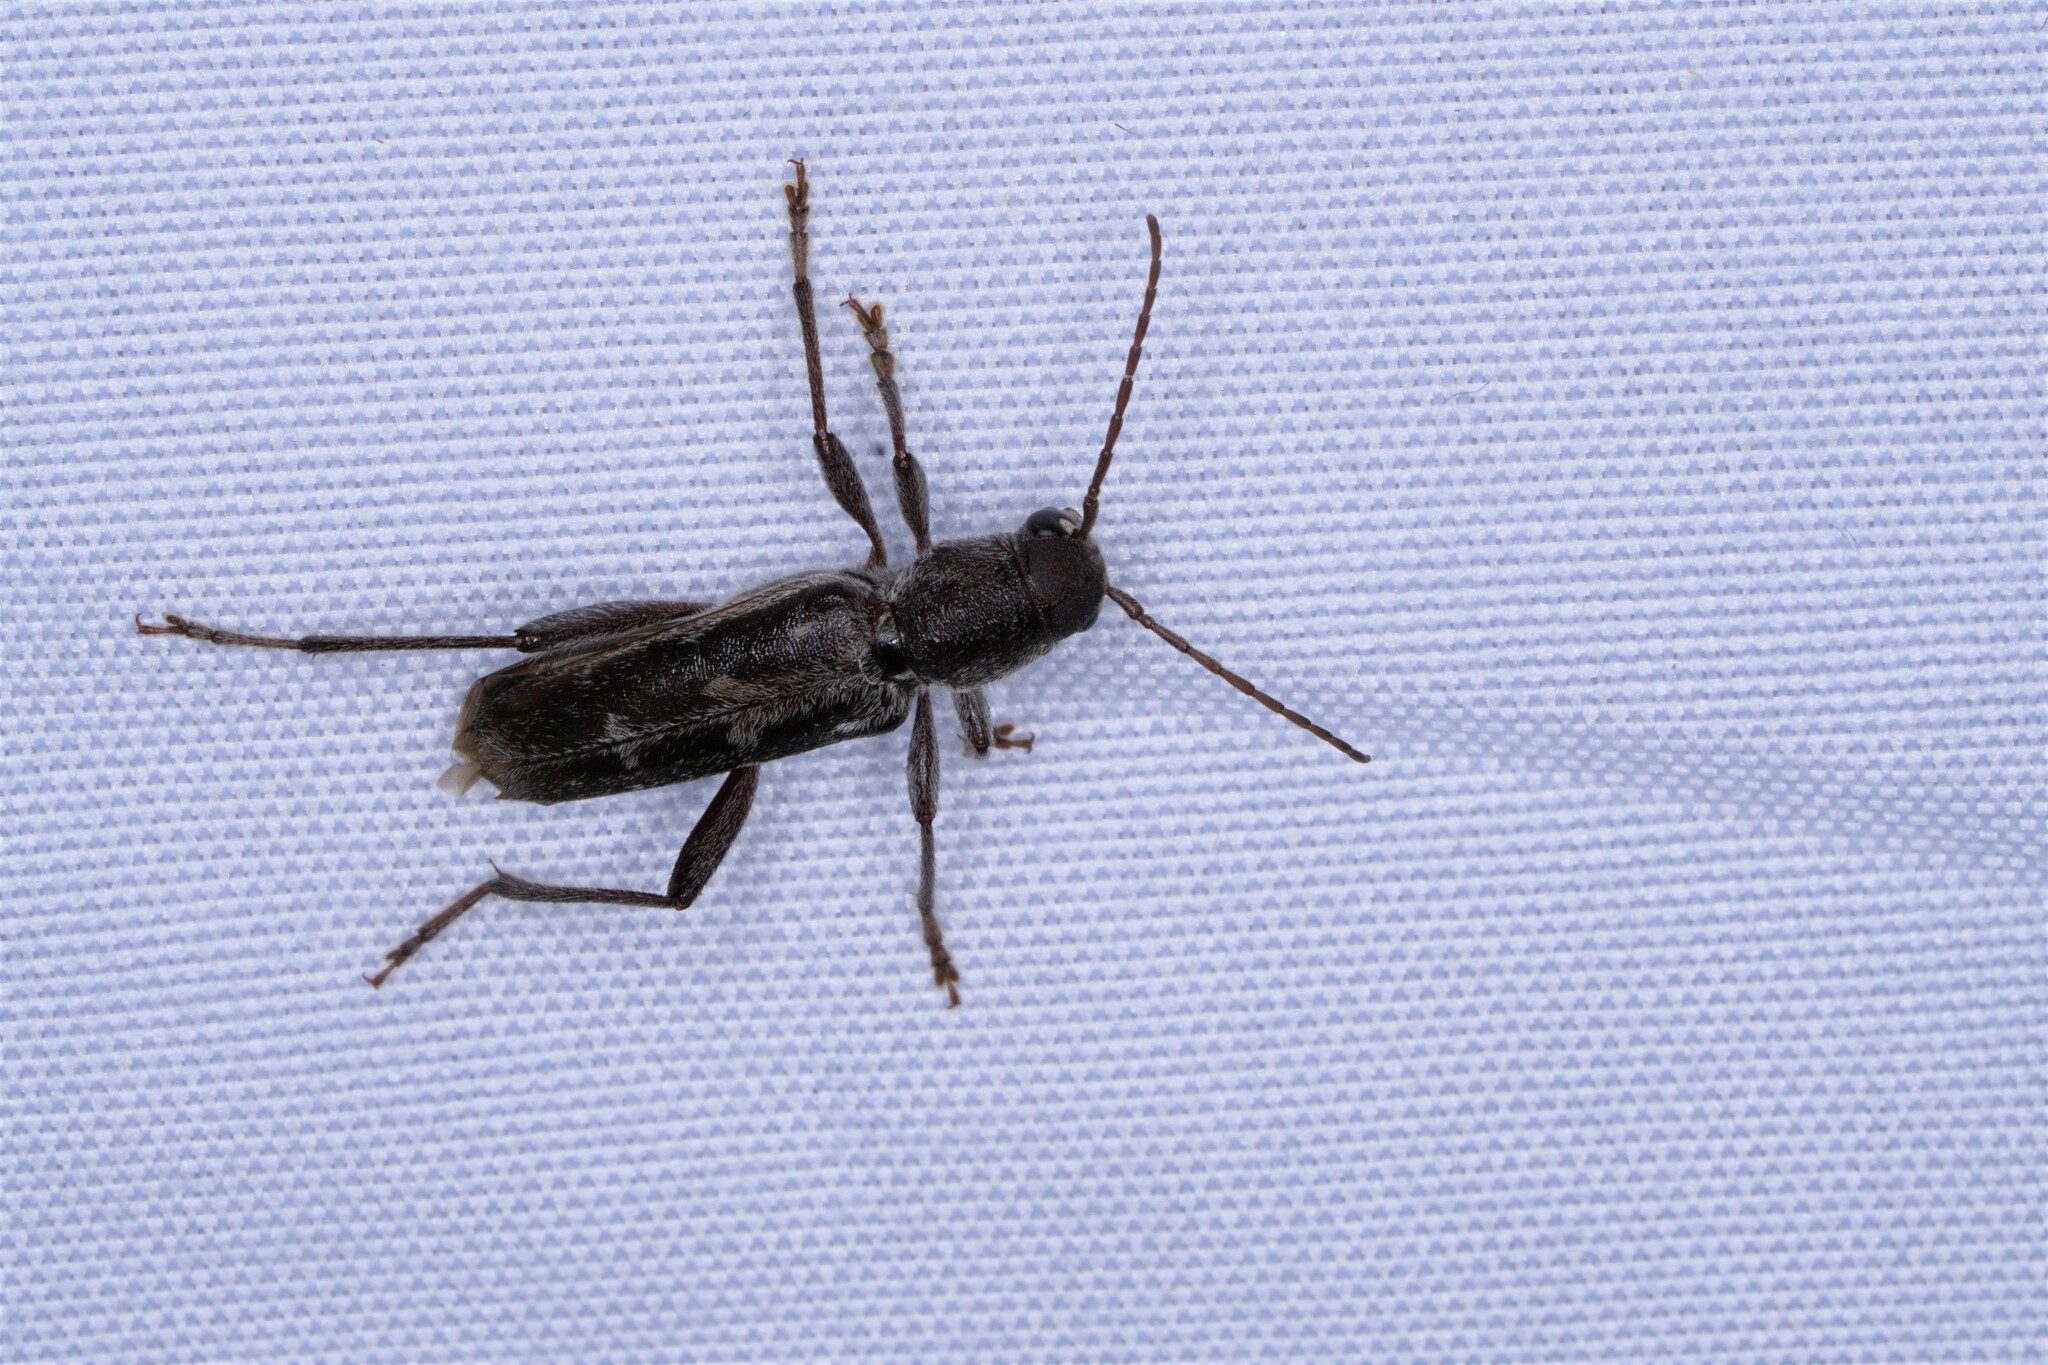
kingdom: Animalia
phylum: Arthropoda
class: Insecta
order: Coleoptera
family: Cerambycidae
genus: Xylotrechus
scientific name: Xylotrechus sagittatus
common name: Arrowhead borer
